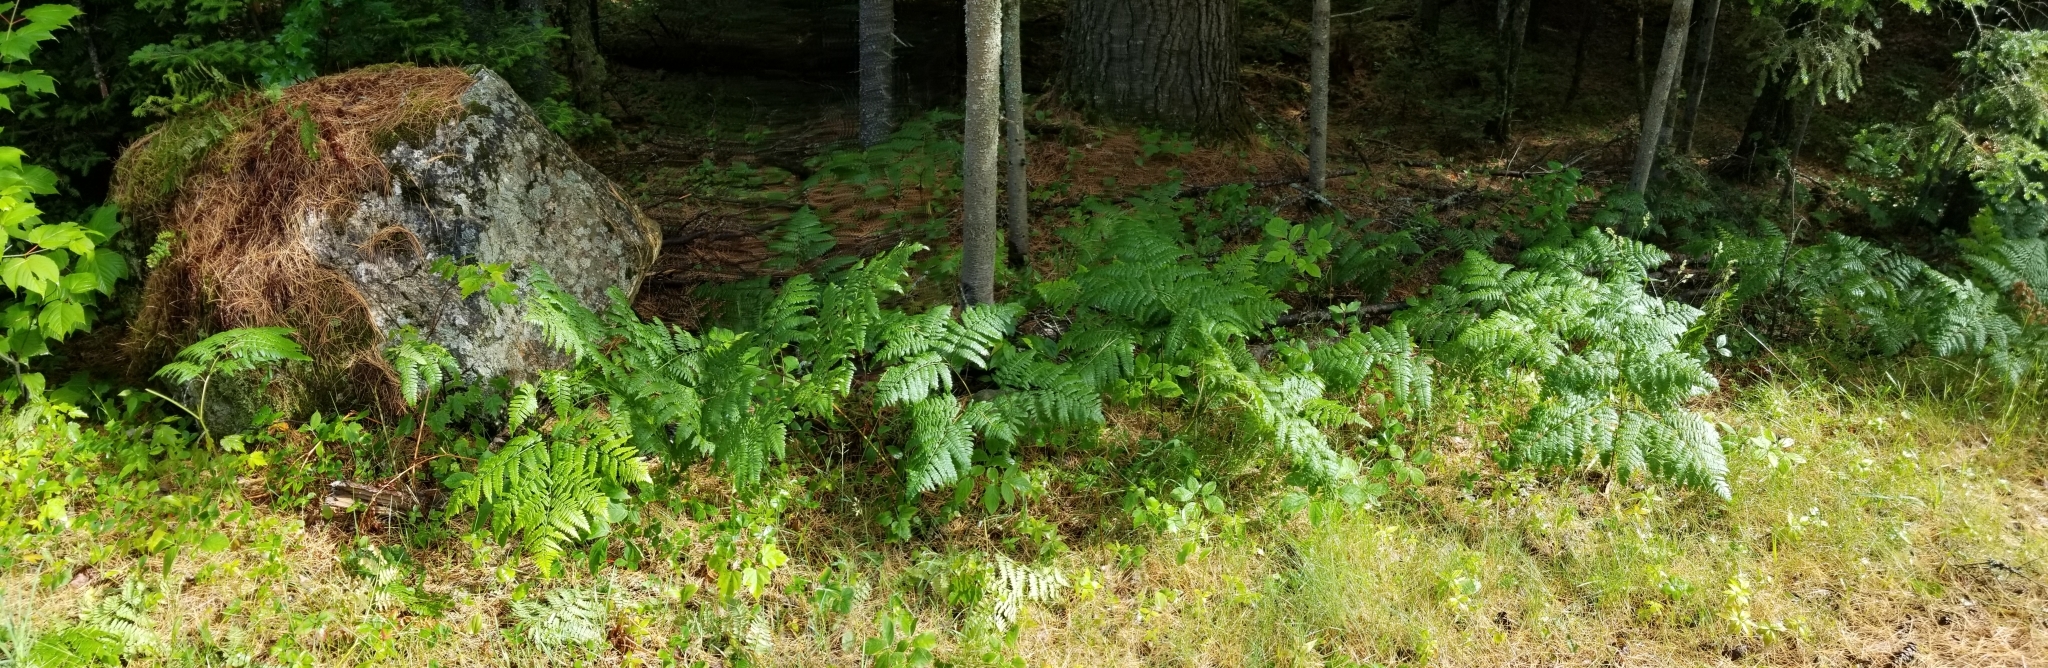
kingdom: Plantae
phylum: Tracheophyta
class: Polypodiopsida
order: Polypodiales
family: Dennstaedtiaceae
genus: Pteridium
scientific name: Pteridium aquilinum
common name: Bracken
